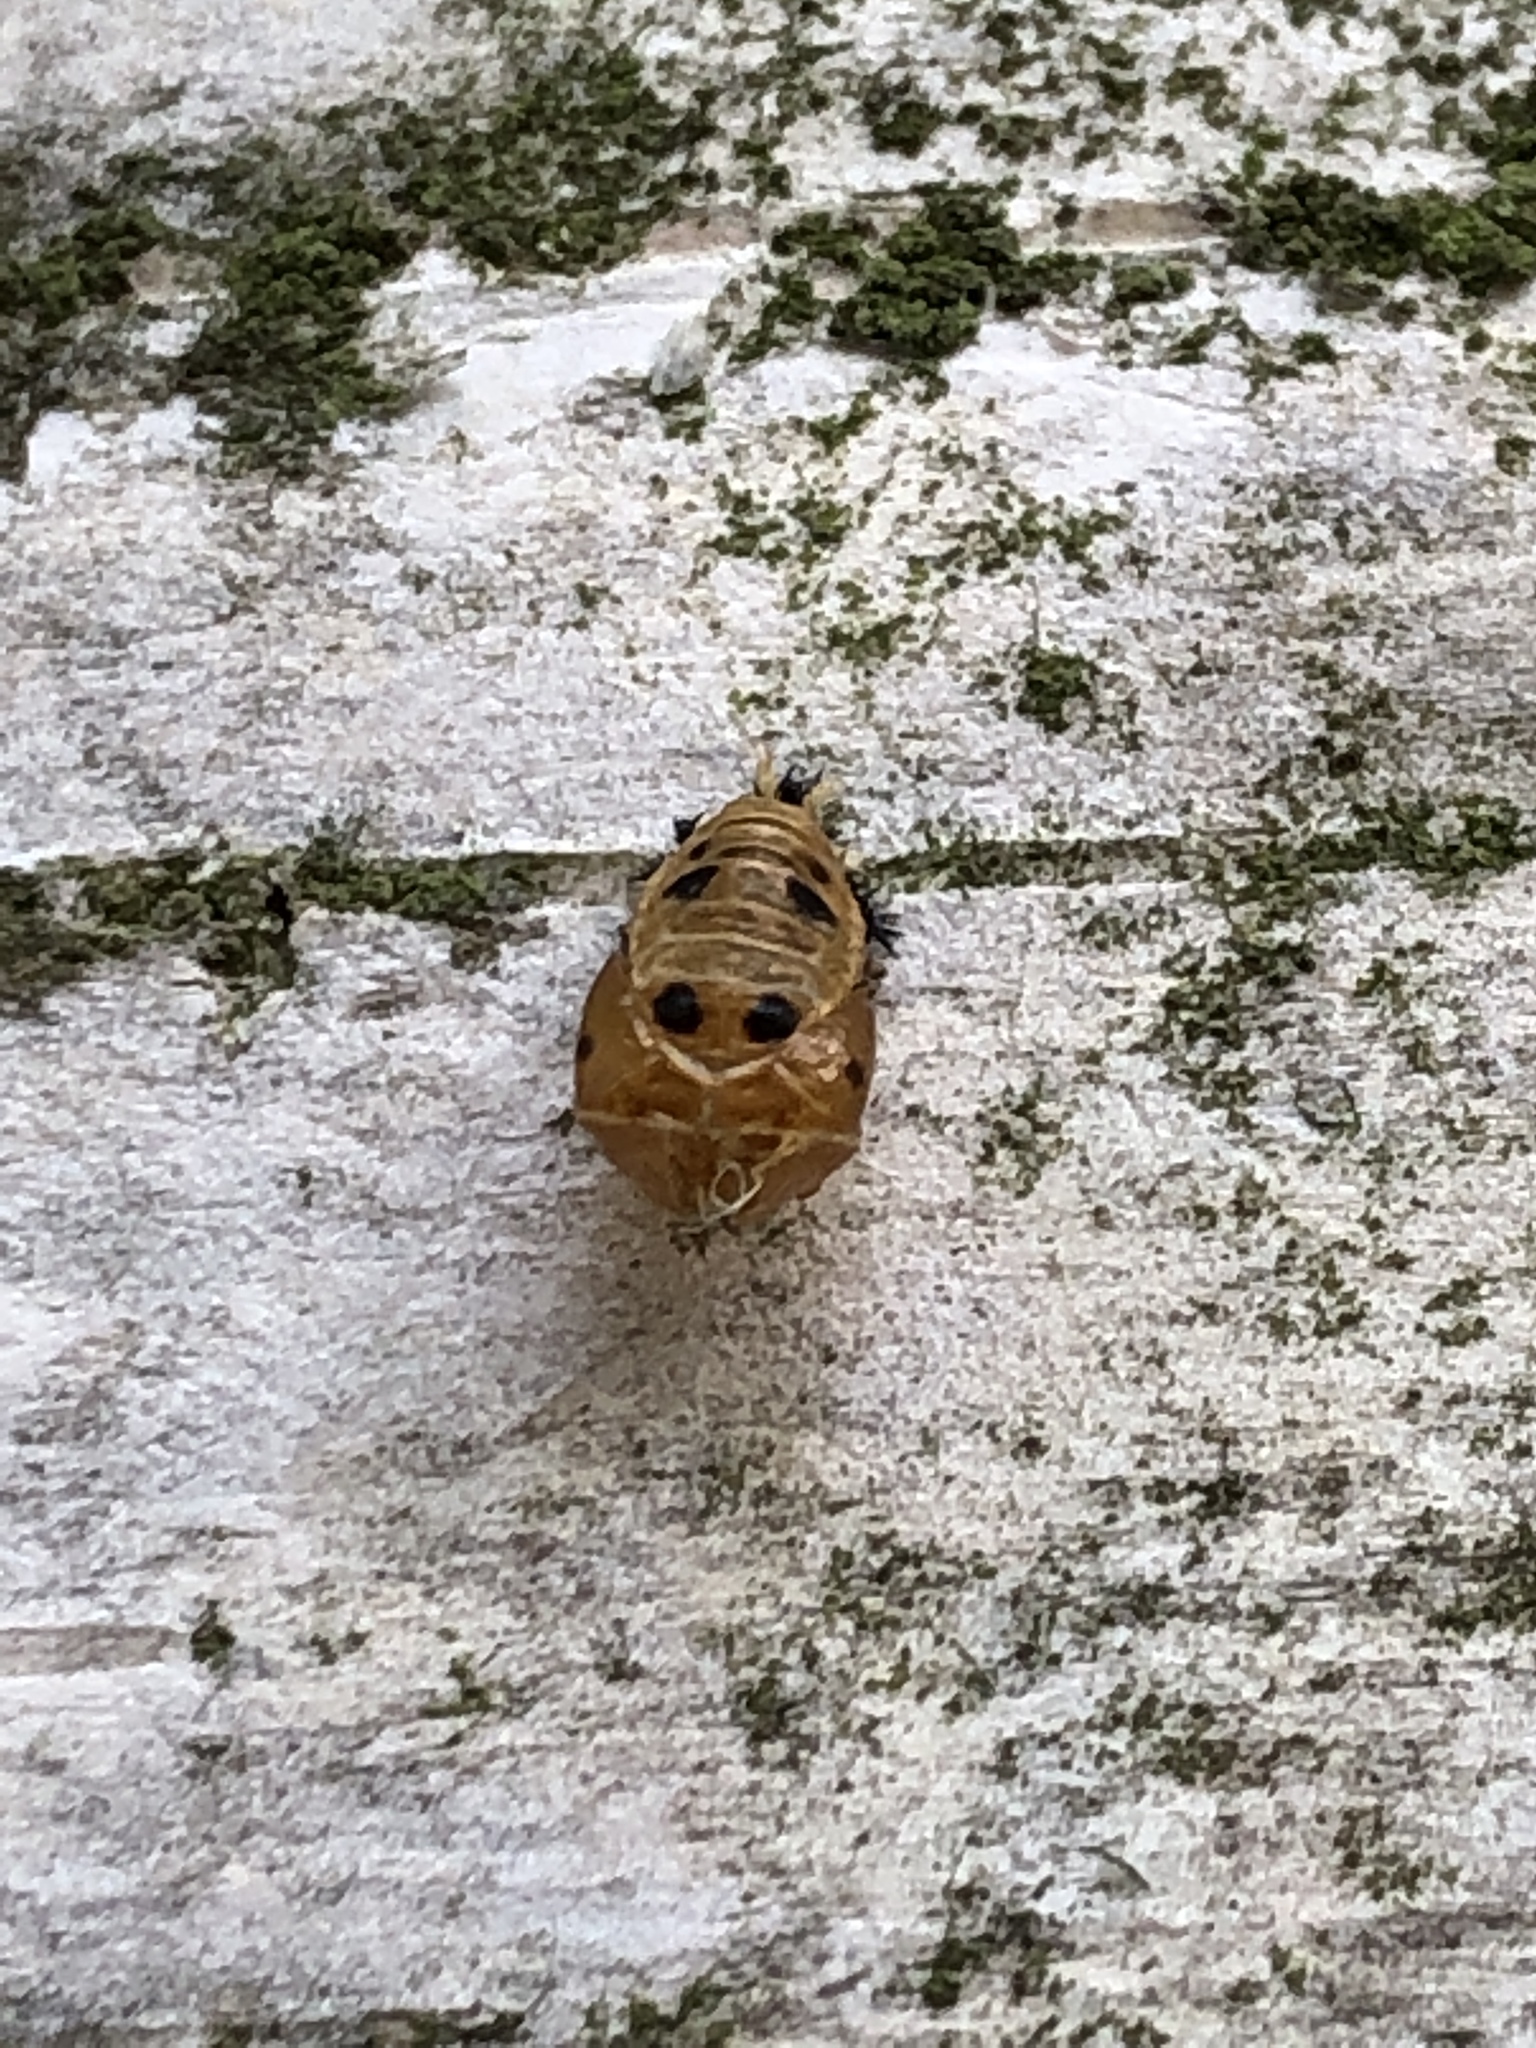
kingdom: Animalia
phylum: Arthropoda
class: Insecta
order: Coleoptera
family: Coccinellidae
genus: Harmonia
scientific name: Harmonia axyridis
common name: Harlequin ladybird
